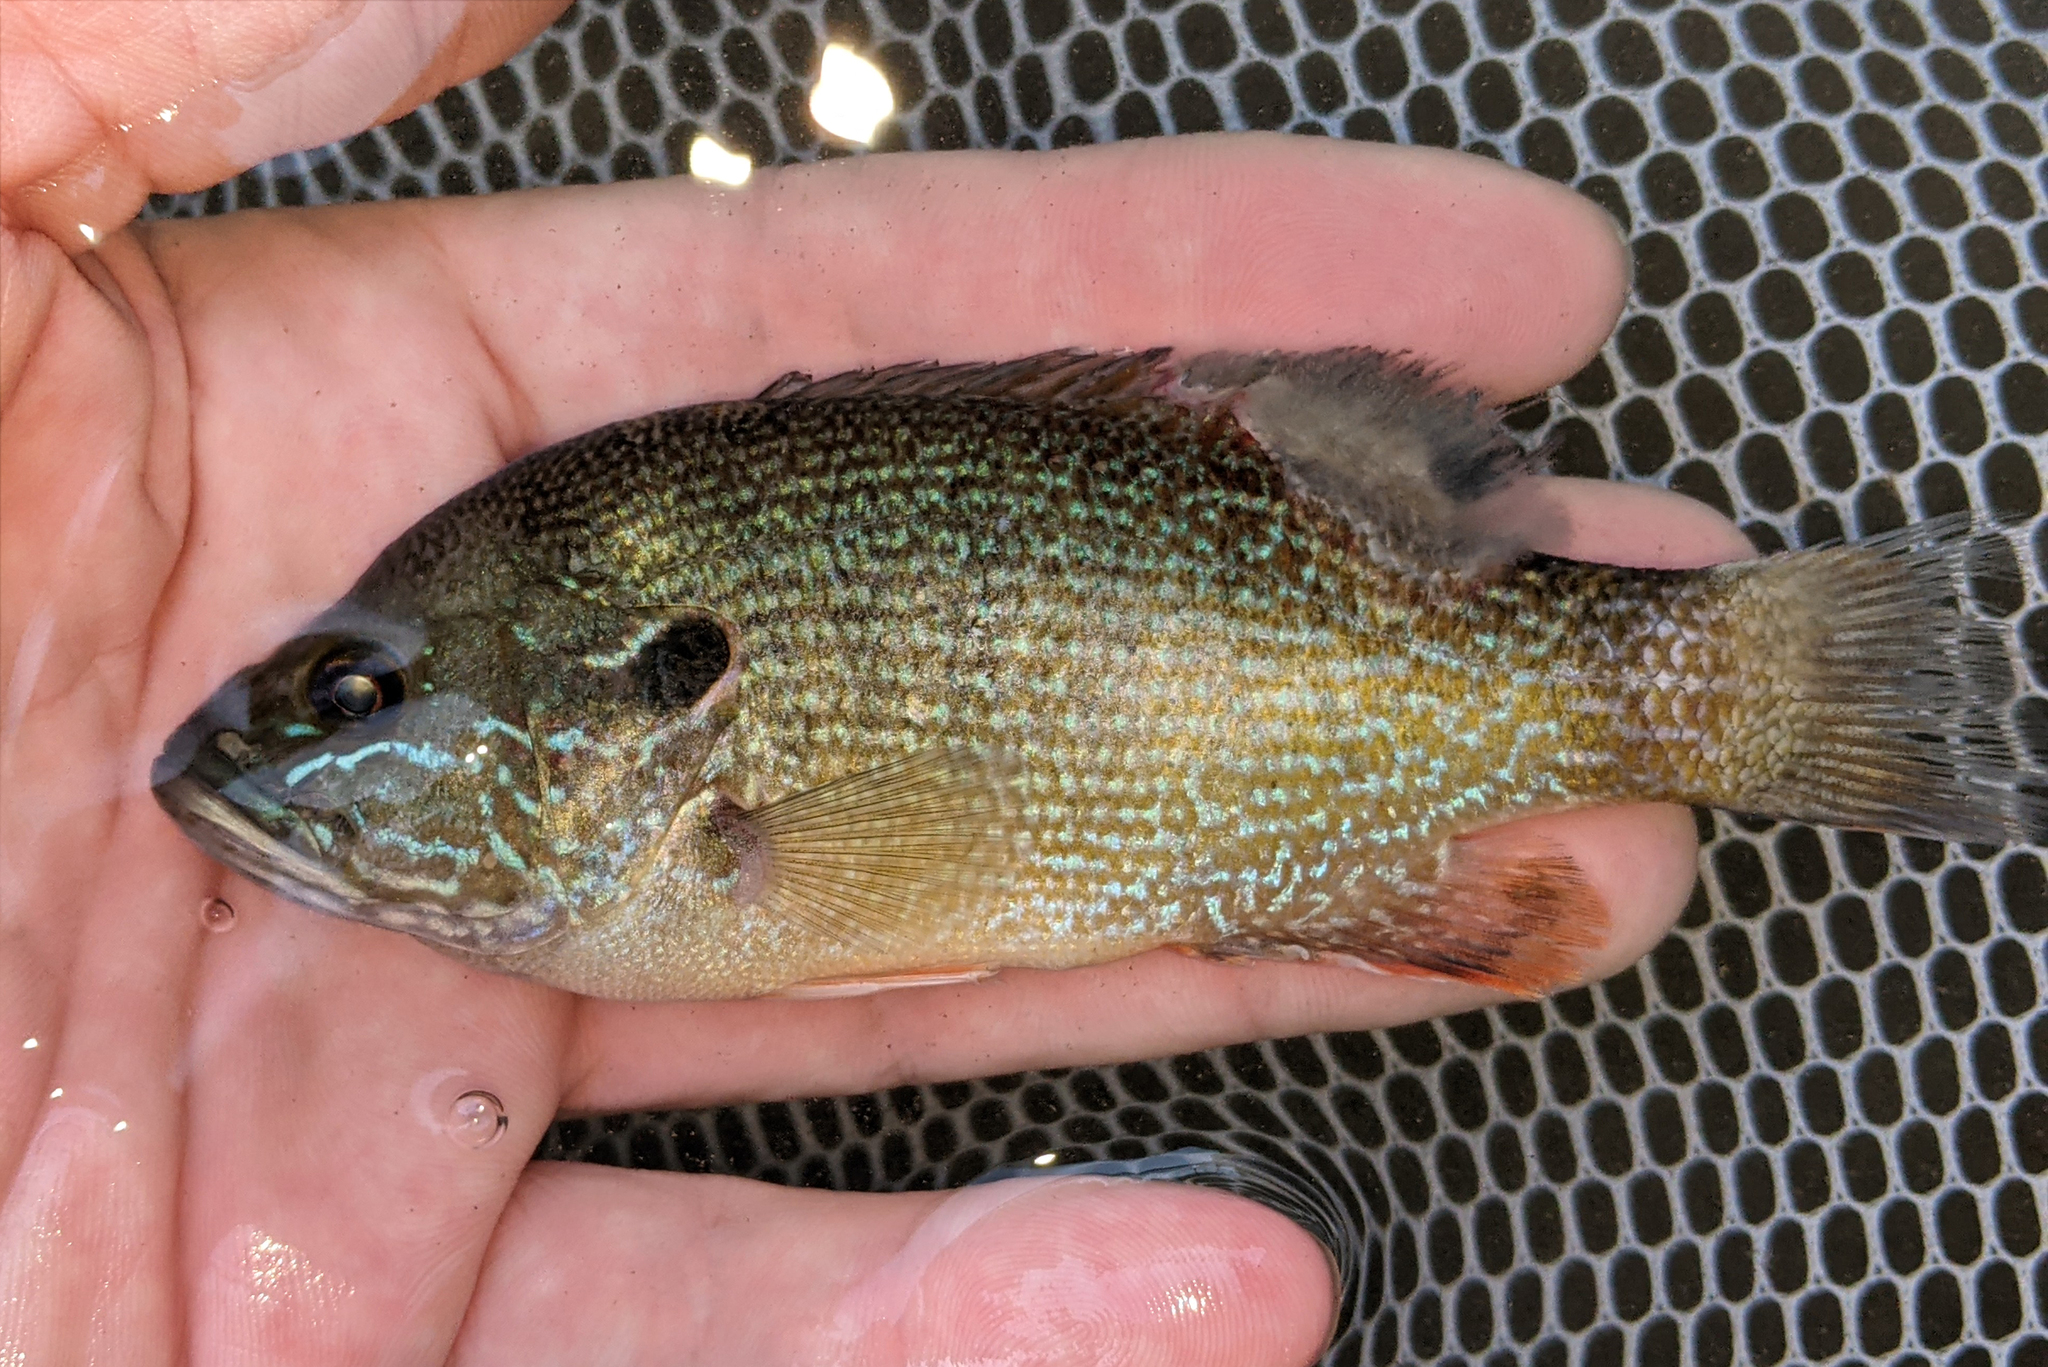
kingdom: Animalia
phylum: Chordata
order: Perciformes
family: Centrarchidae
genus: Lepomis
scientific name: Lepomis cyanellus
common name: Green sunfish
